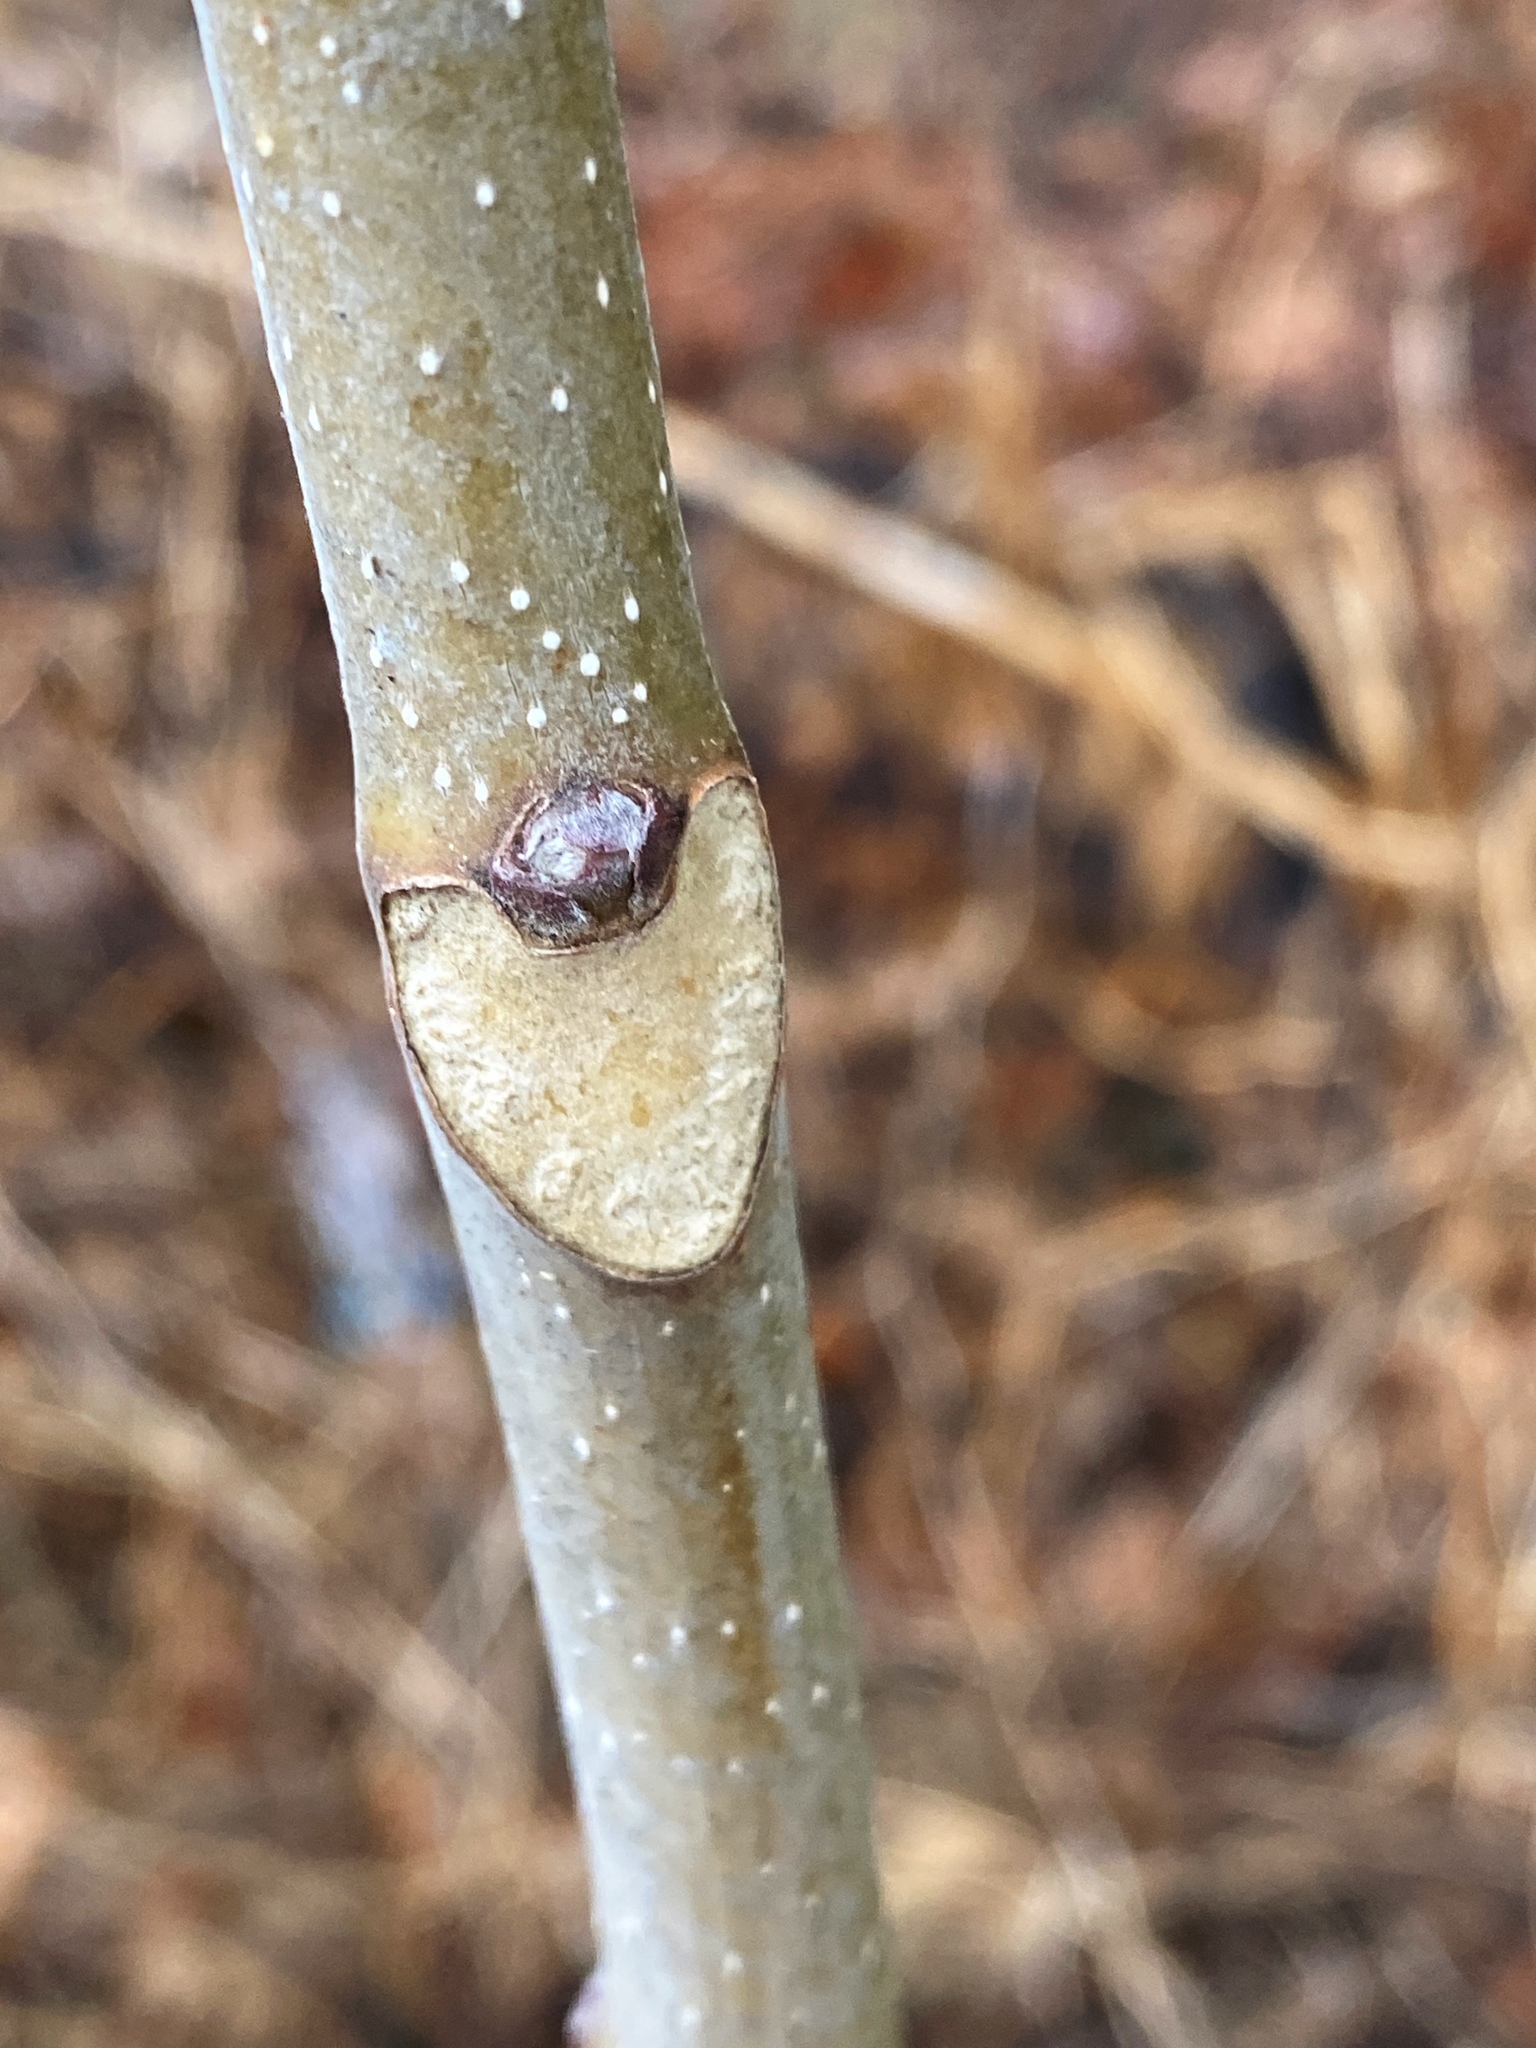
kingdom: Plantae
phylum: Tracheophyta
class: Magnoliopsida
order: Sapindales
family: Simaroubaceae
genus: Ailanthus
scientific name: Ailanthus altissima
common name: Tree-of-heaven
